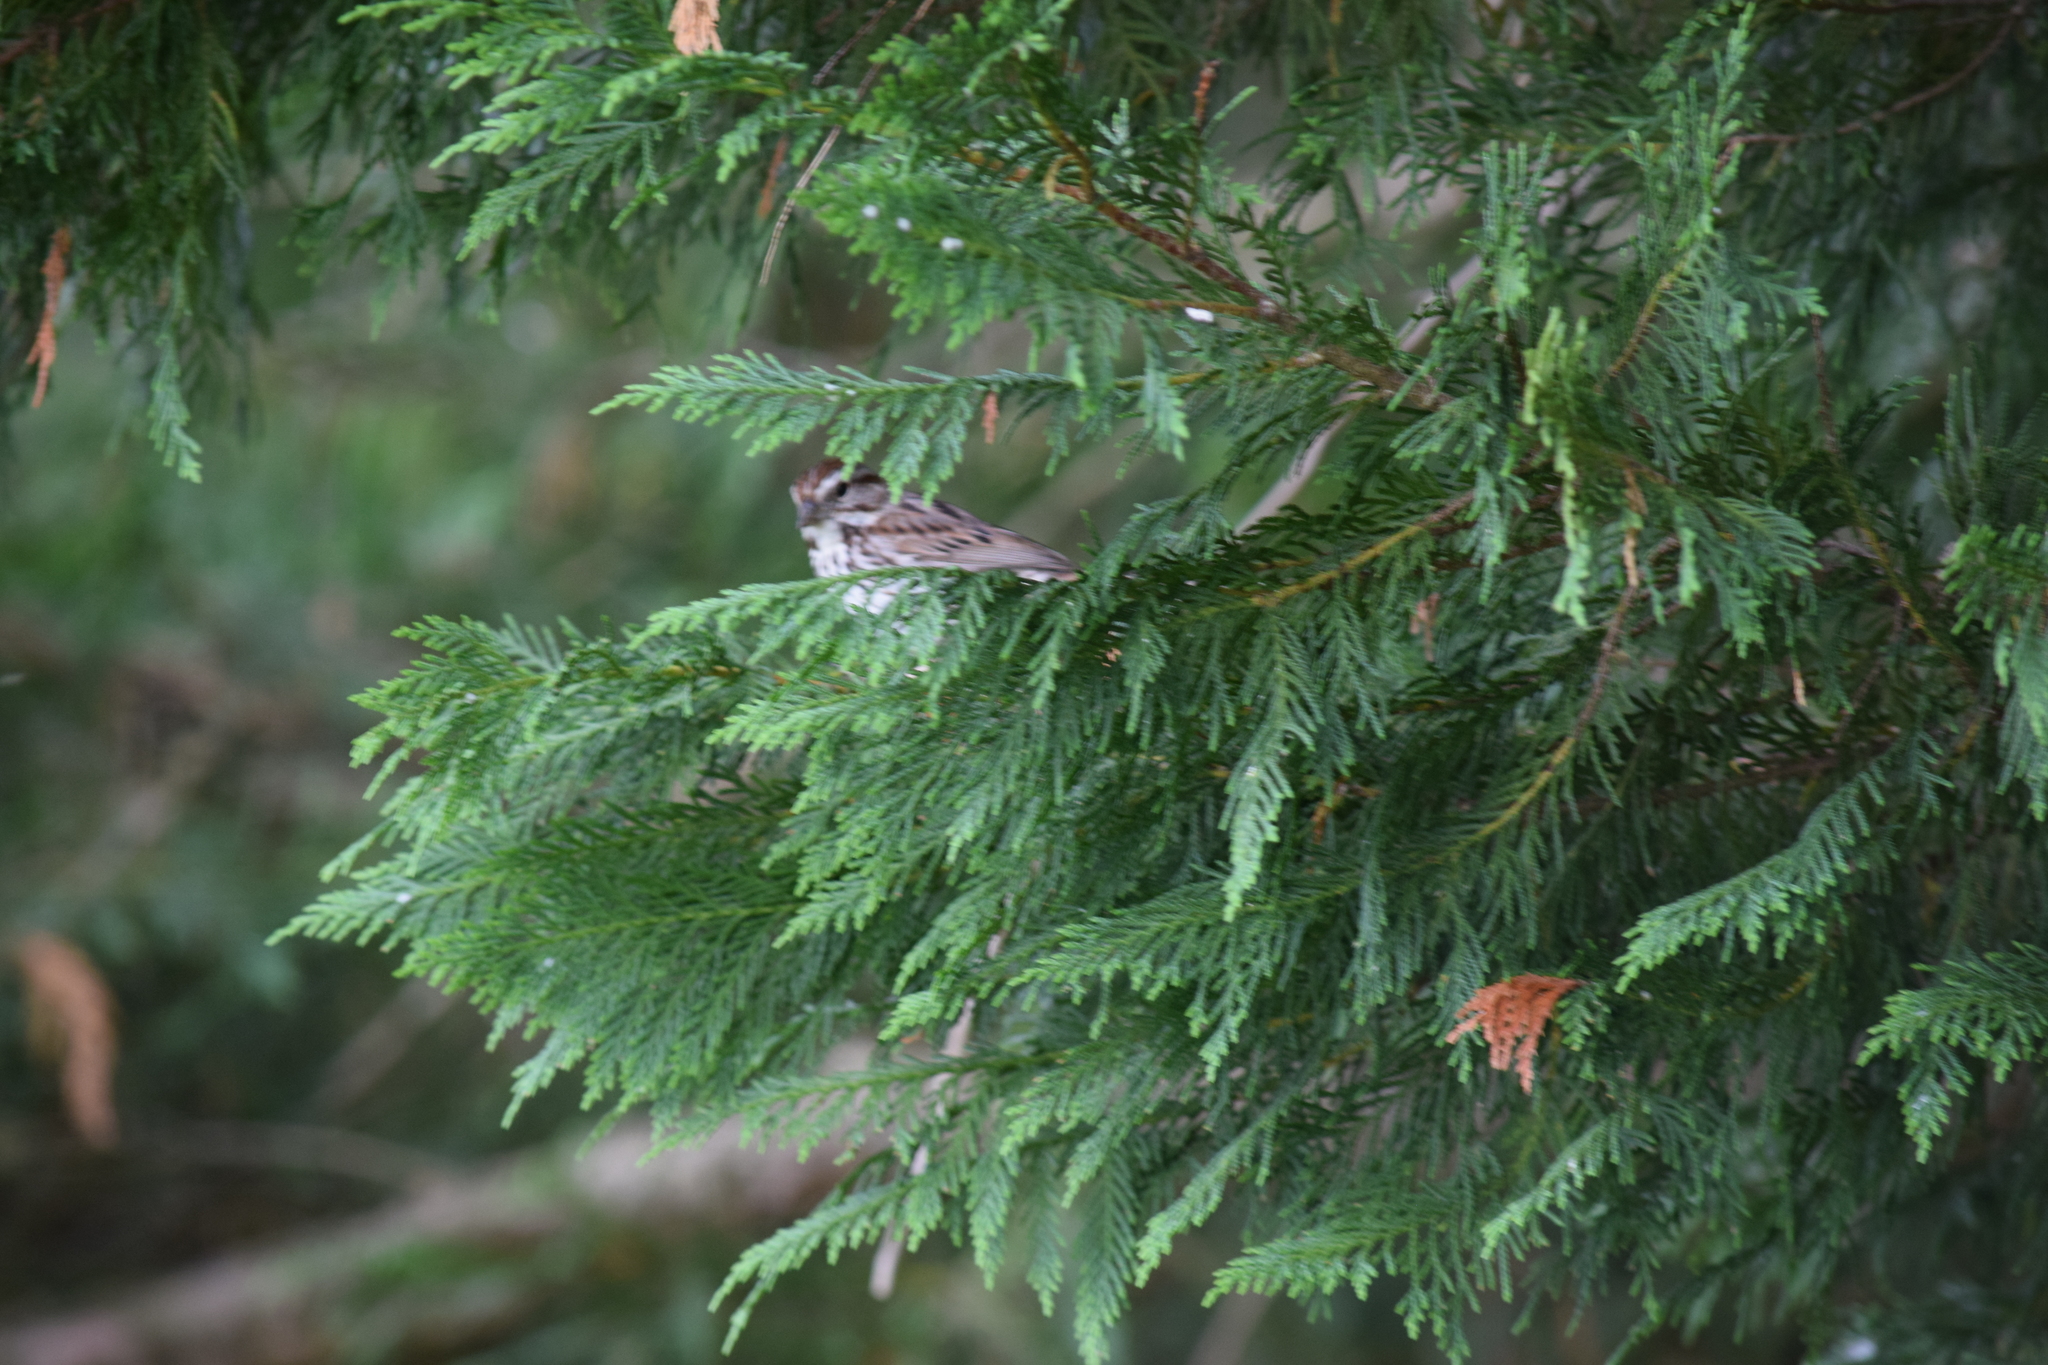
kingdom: Animalia
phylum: Chordata
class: Aves
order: Passeriformes
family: Passerellidae
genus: Melospiza
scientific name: Melospiza melodia
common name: Song sparrow
